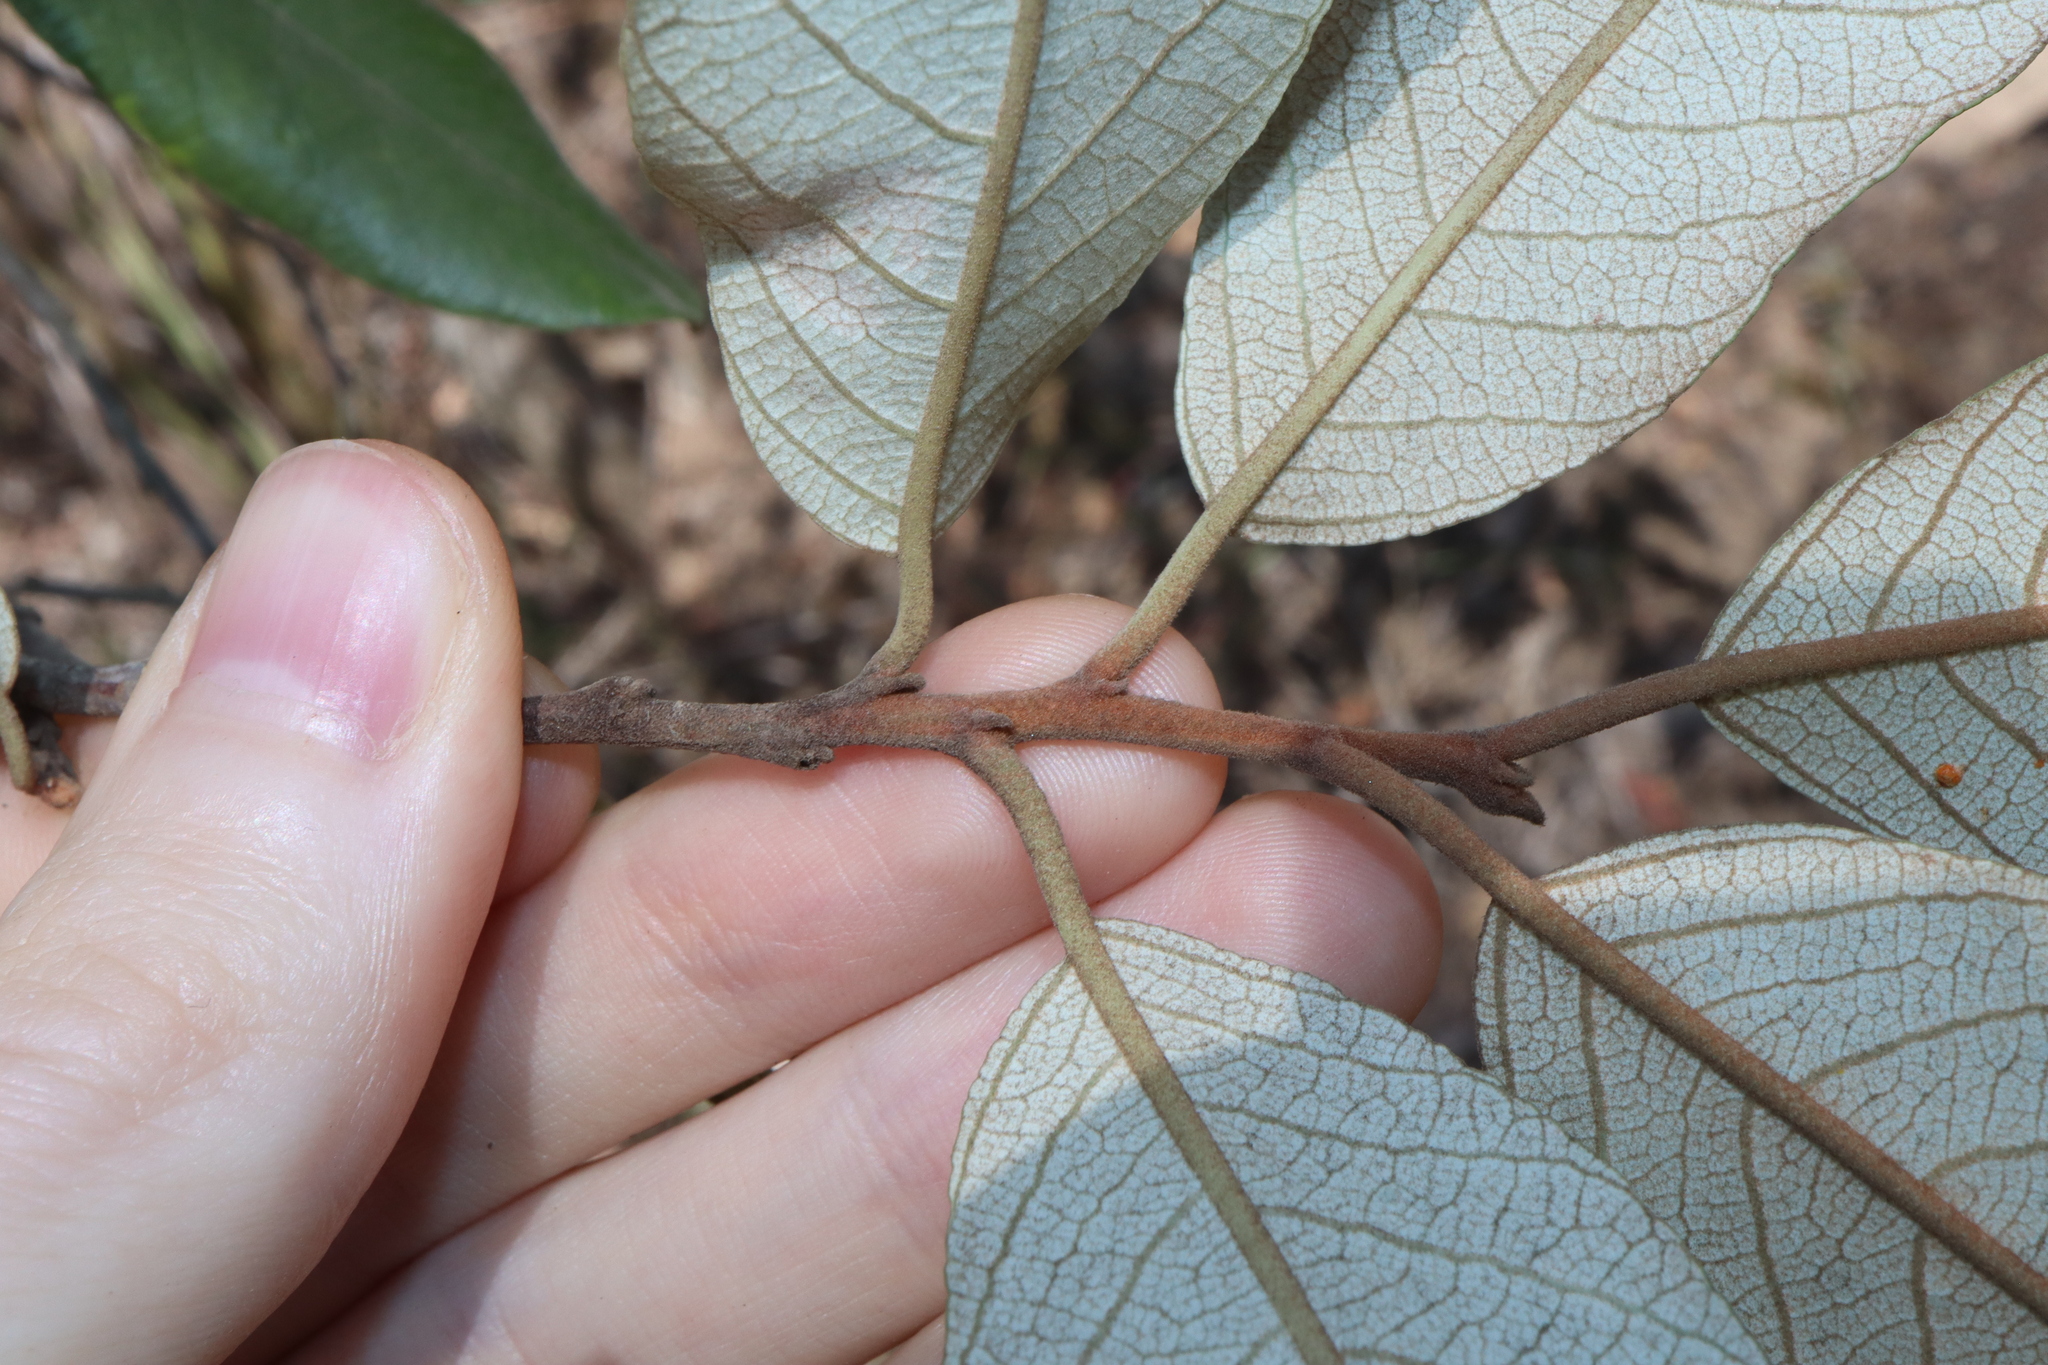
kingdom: Plantae
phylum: Tracheophyta
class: Magnoliopsida
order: Rosales
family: Rhamnaceae
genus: Alphitonia
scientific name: Alphitonia excelsa
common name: Red ash
